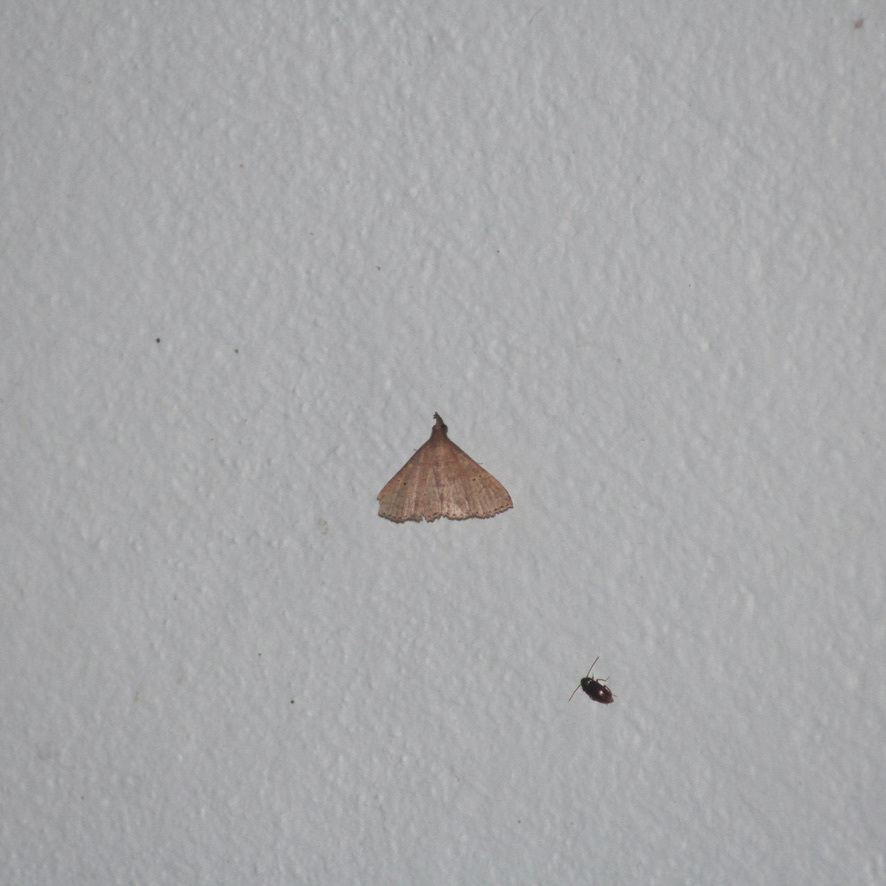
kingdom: Animalia
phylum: Arthropoda
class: Insecta
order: Lepidoptera
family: Erebidae
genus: Physula
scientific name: Physula migralis
